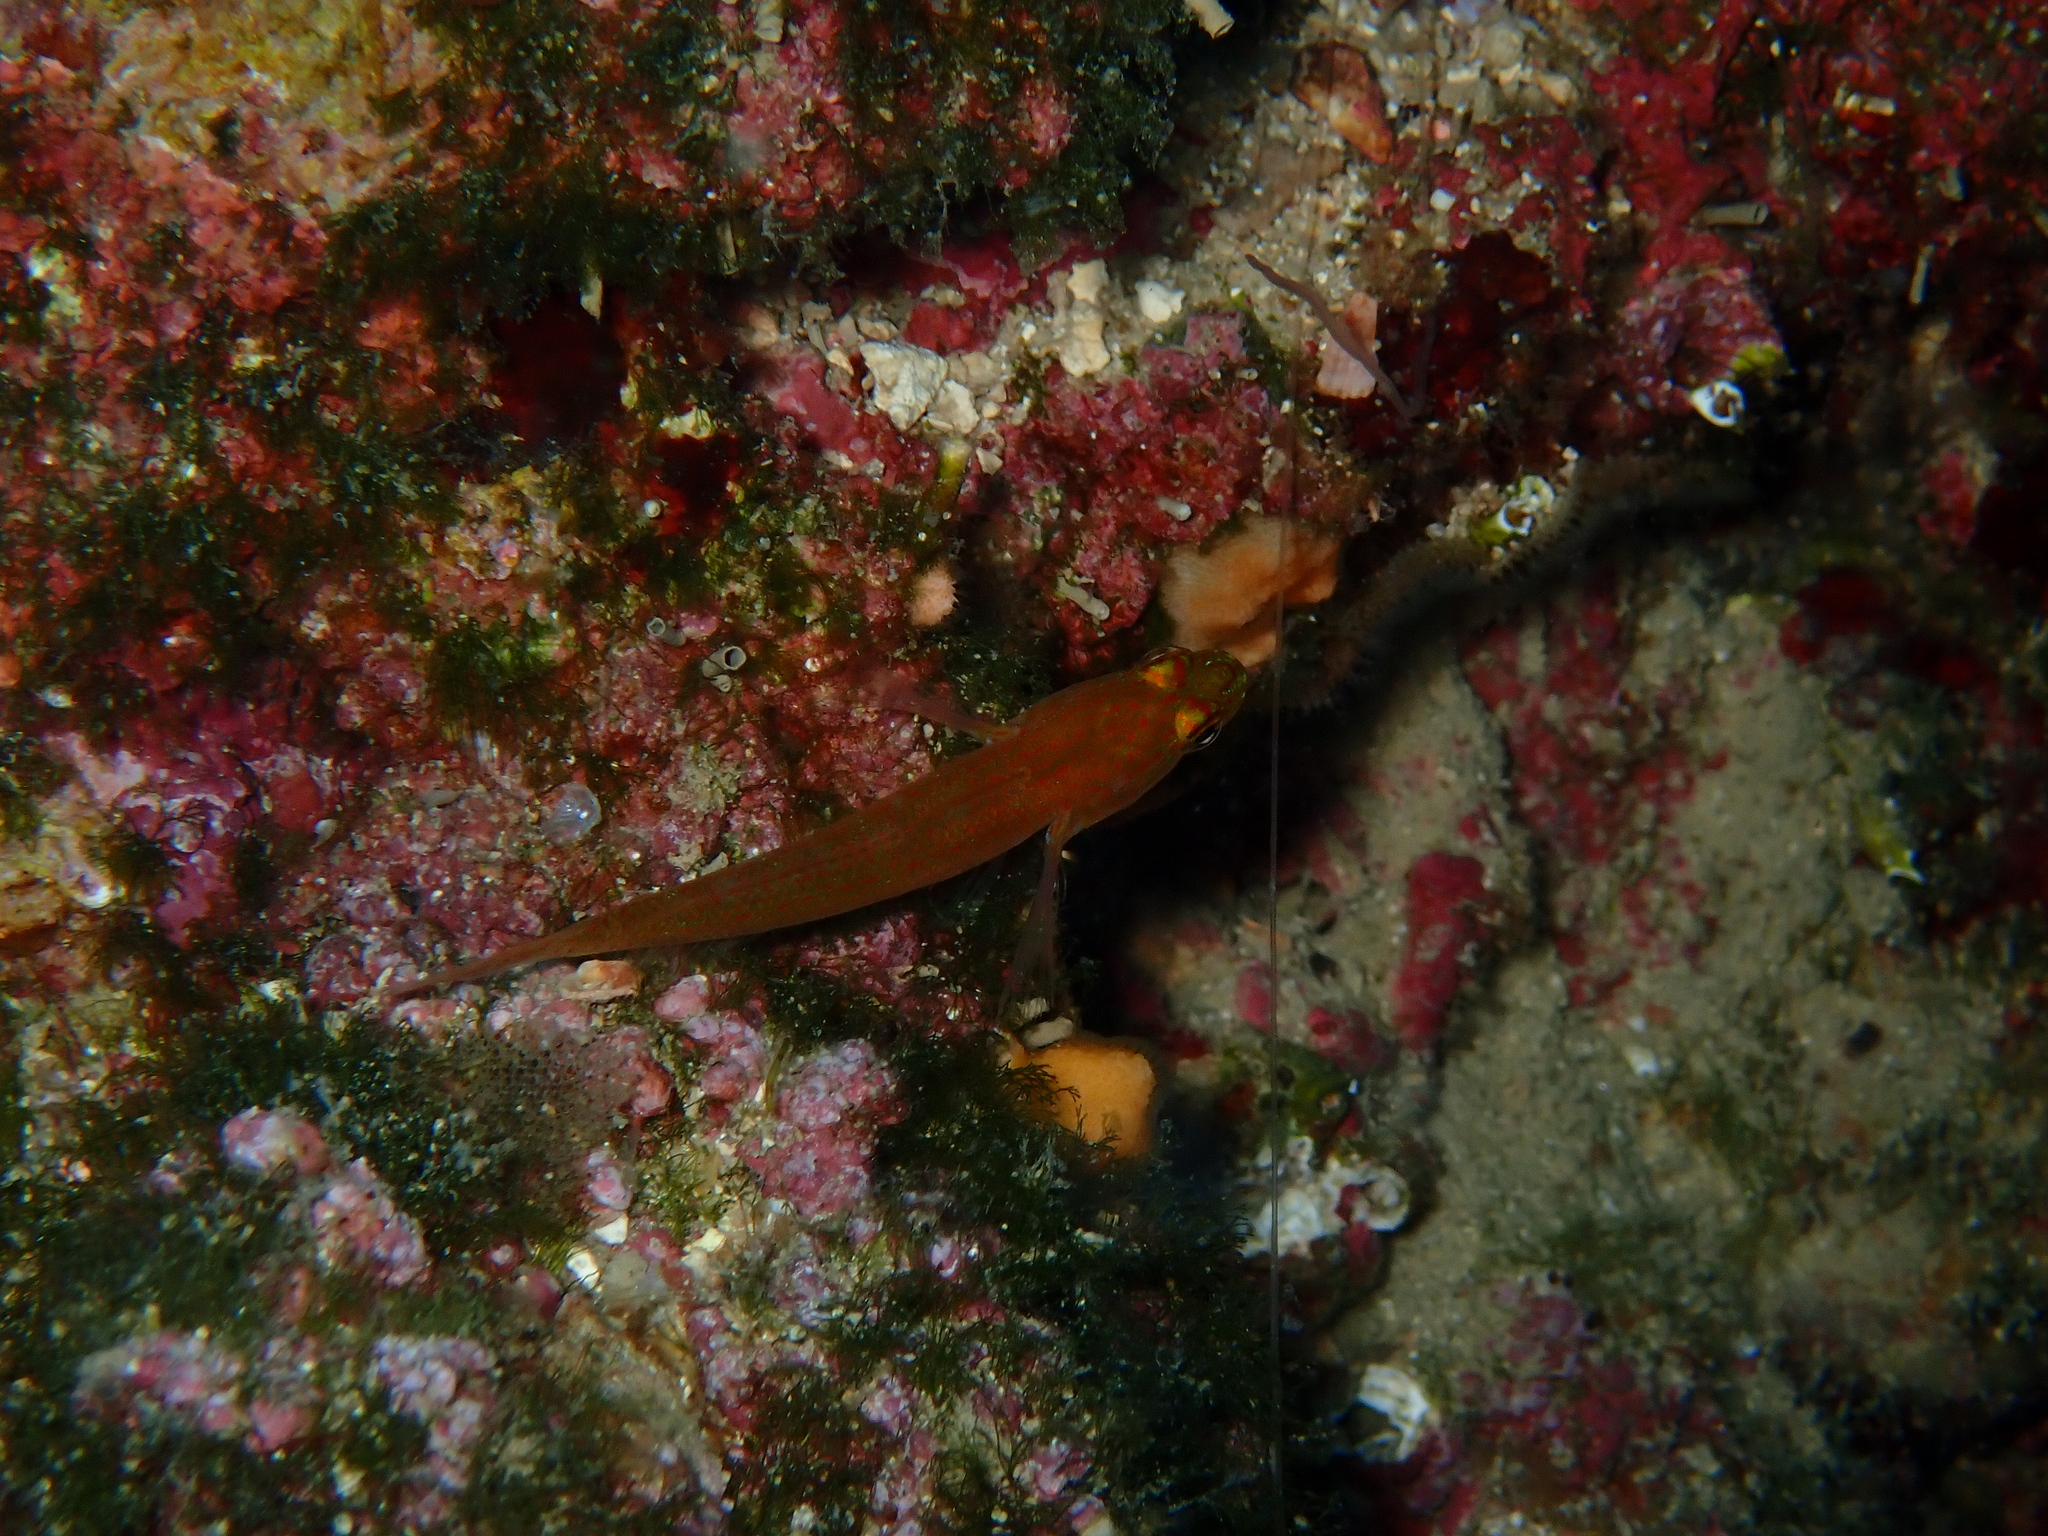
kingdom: Animalia
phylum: Chordata
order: Perciformes
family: Gobiidae
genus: Gobius
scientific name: Gobius auratus
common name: Golden goby
